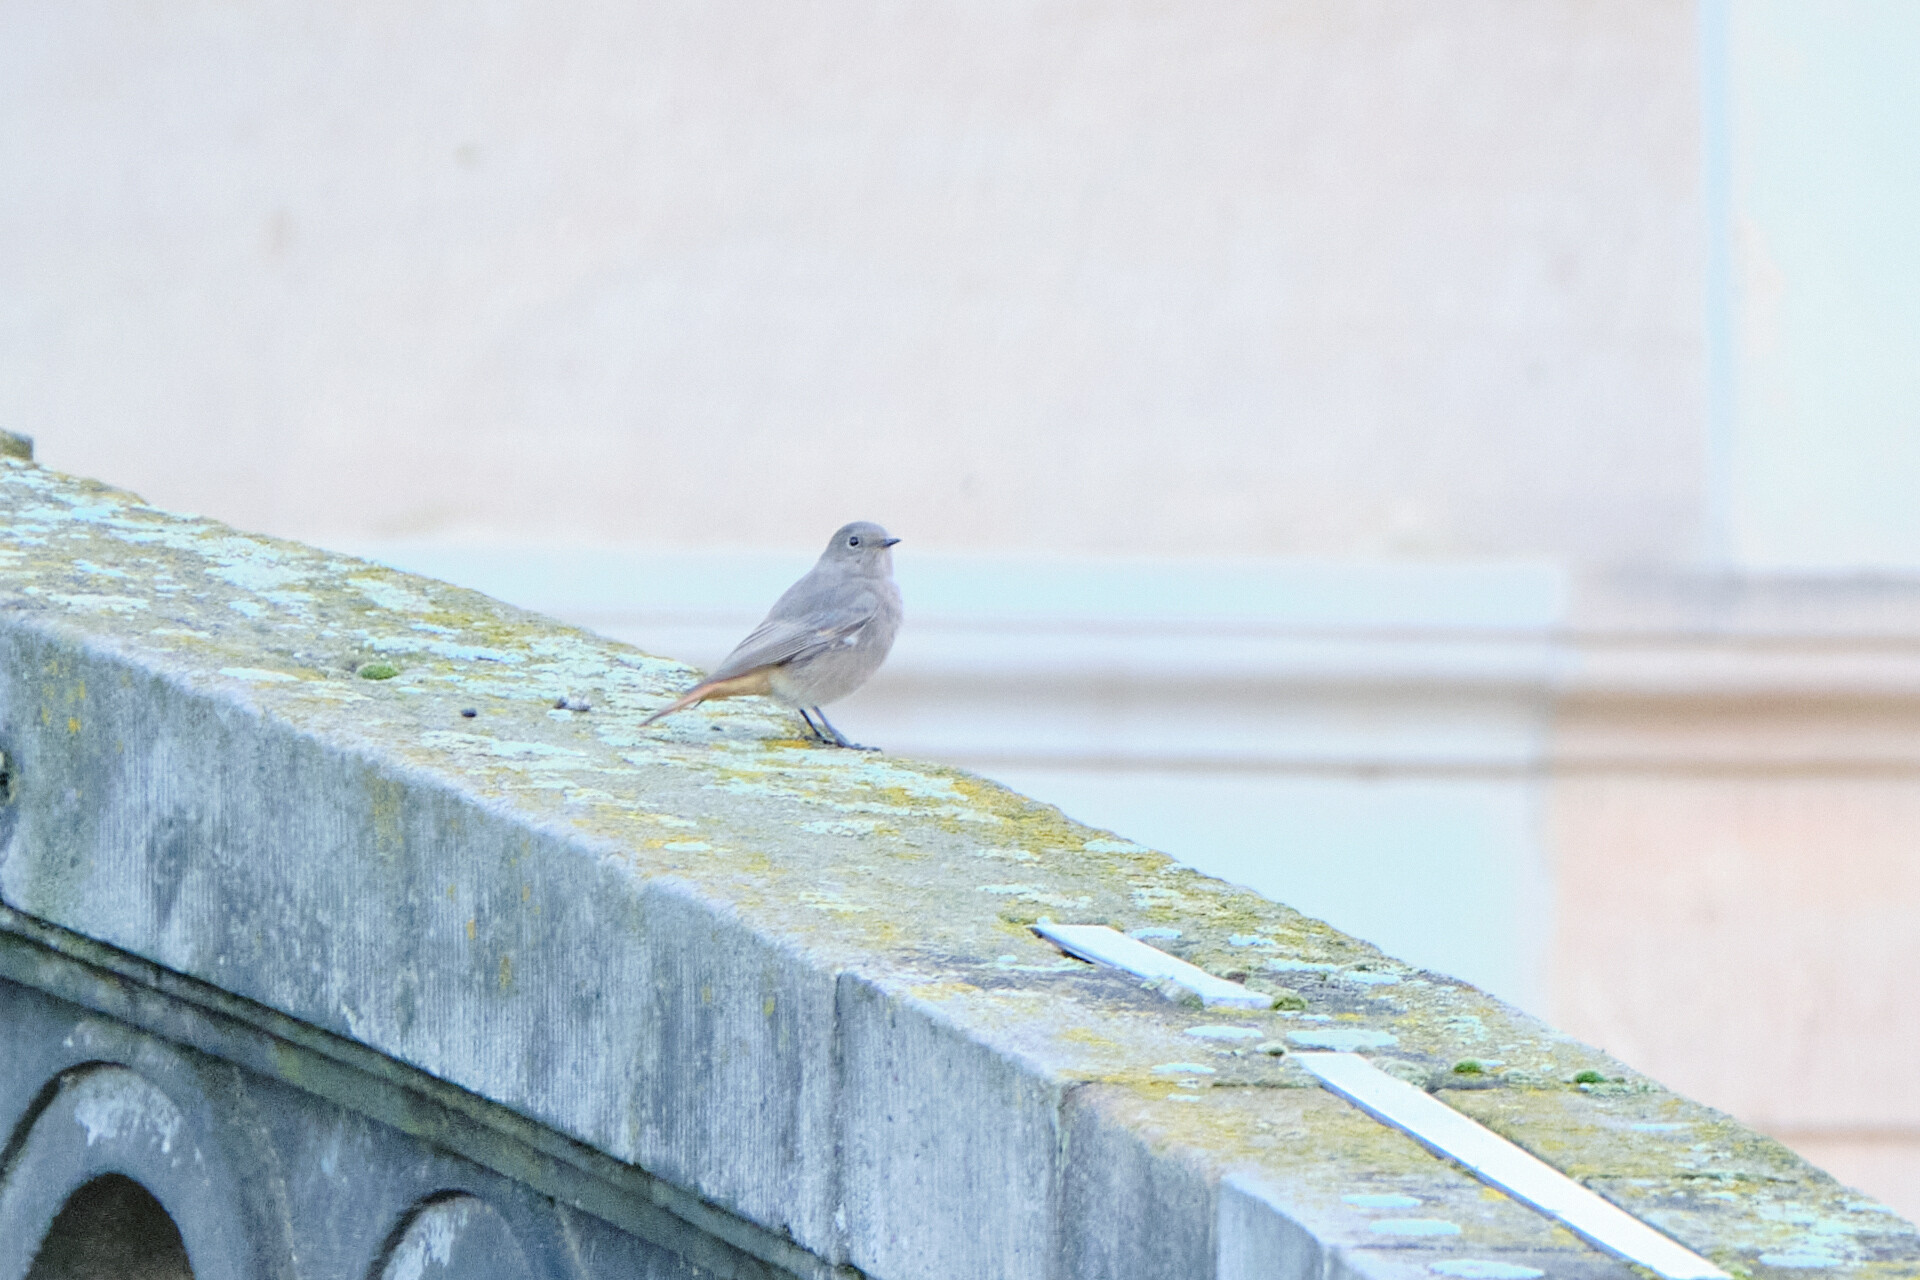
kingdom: Animalia
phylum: Chordata
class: Aves
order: Passeriformes
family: Muscicapidae
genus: Phoenicurus
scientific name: Phoenicurus ochruros
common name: Black redstart
